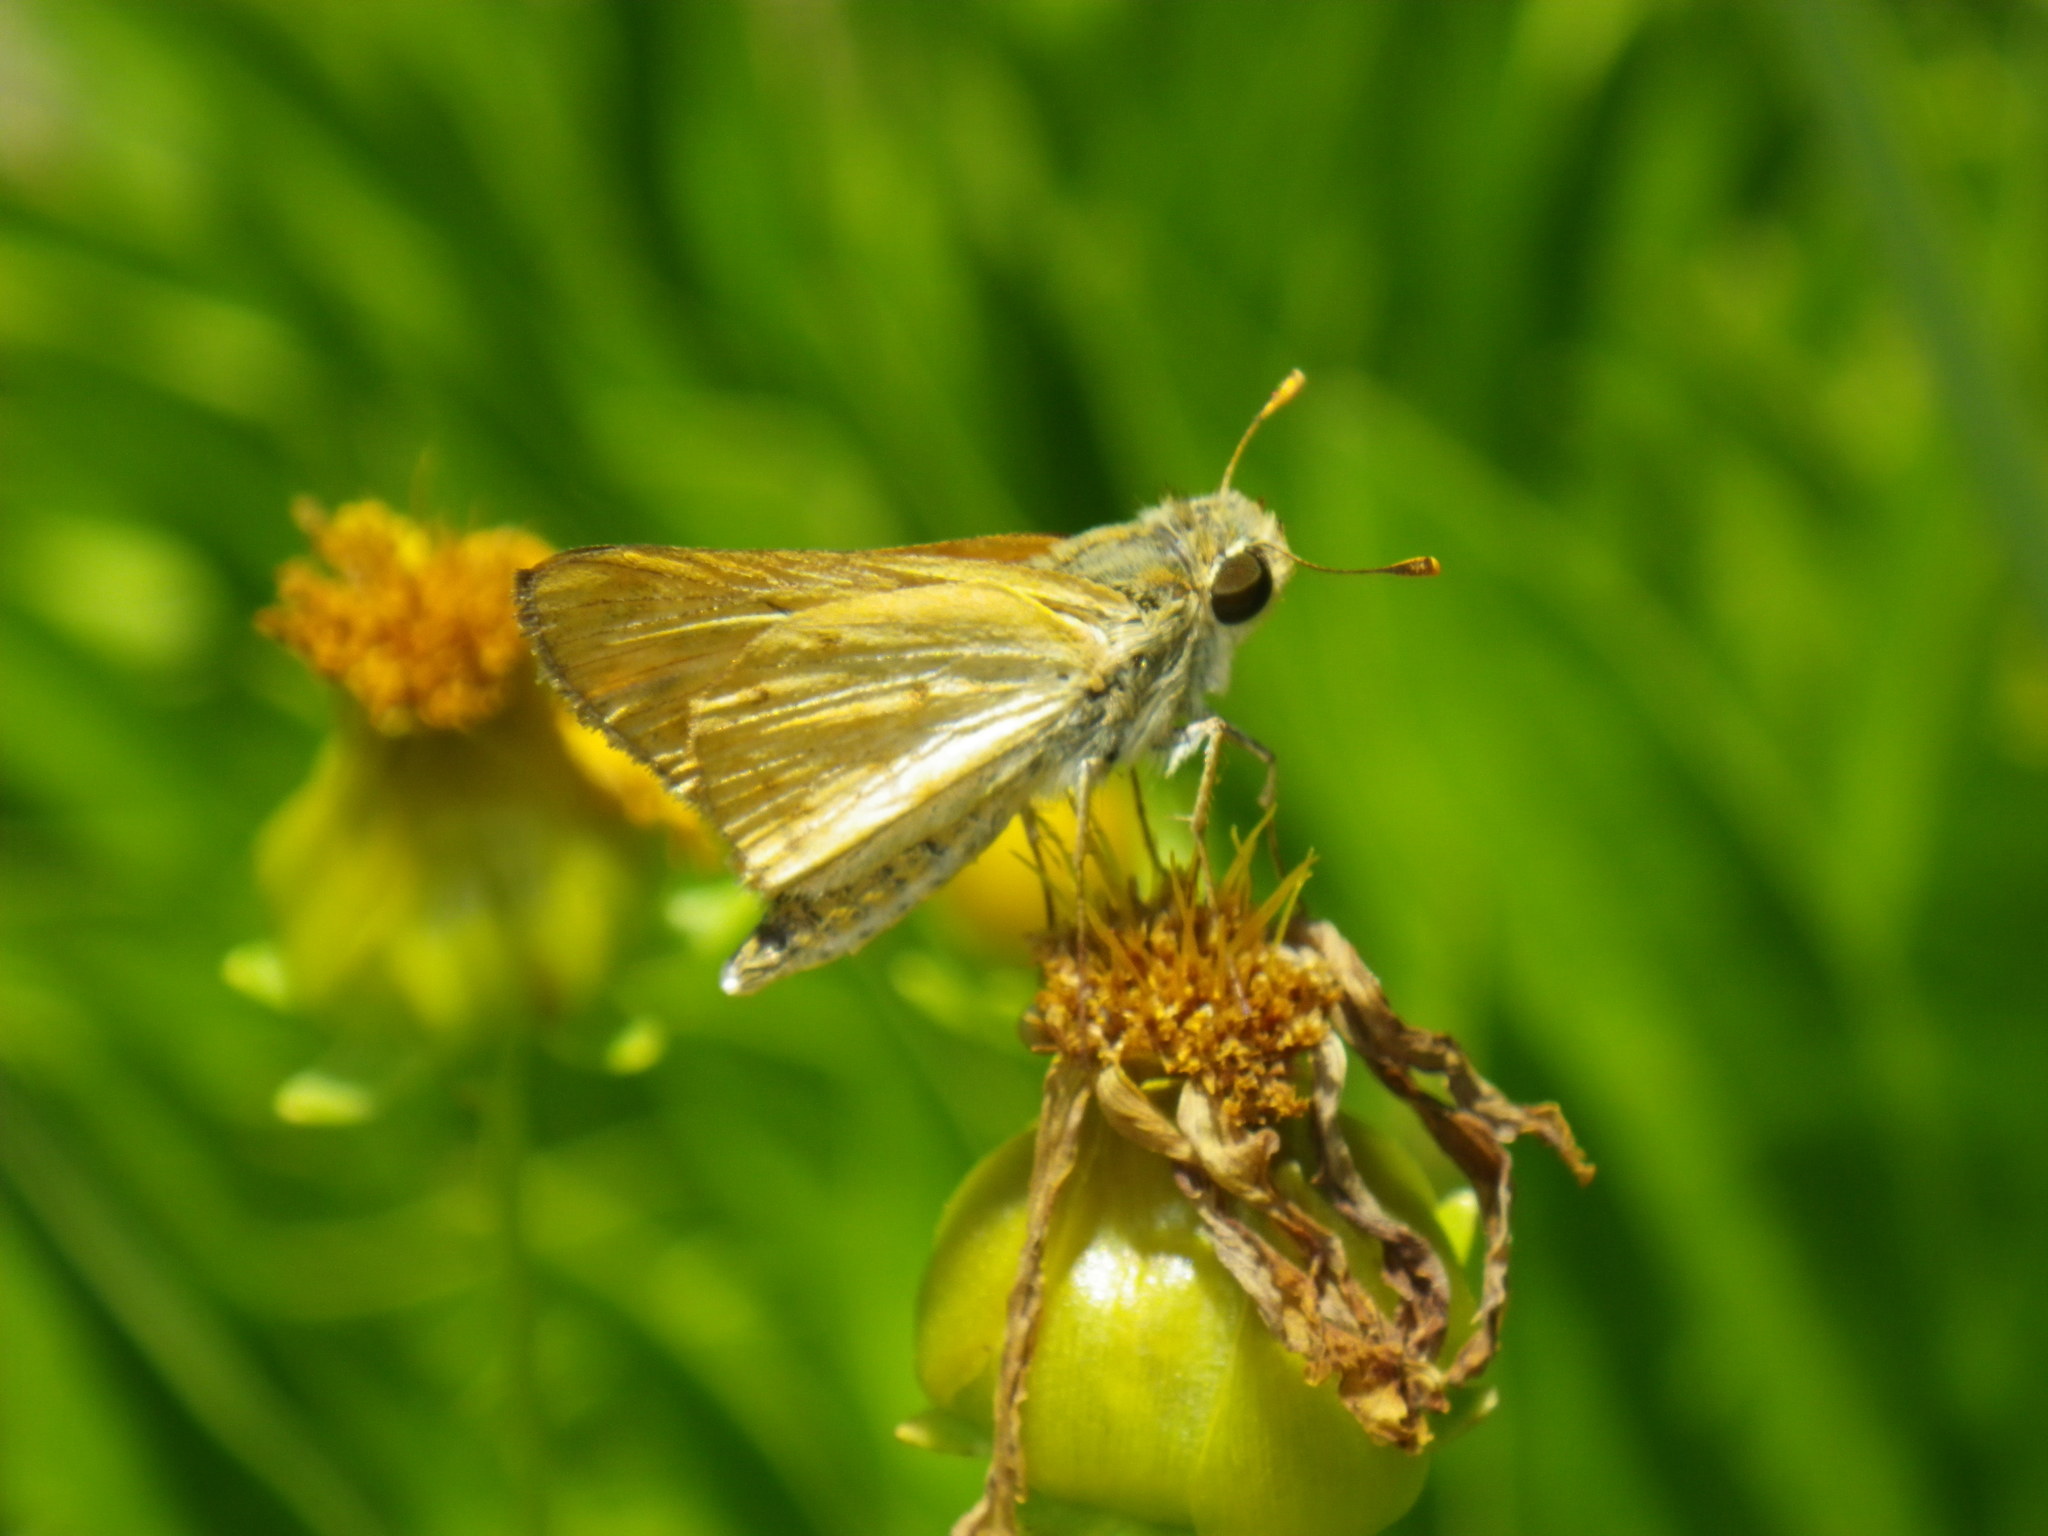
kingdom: Animalia
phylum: Arthropoda
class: Insecta
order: Lepidoptera
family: Hesperiidae
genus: Hylephila
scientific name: Hylephila phyleus
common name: Fiery skipper
